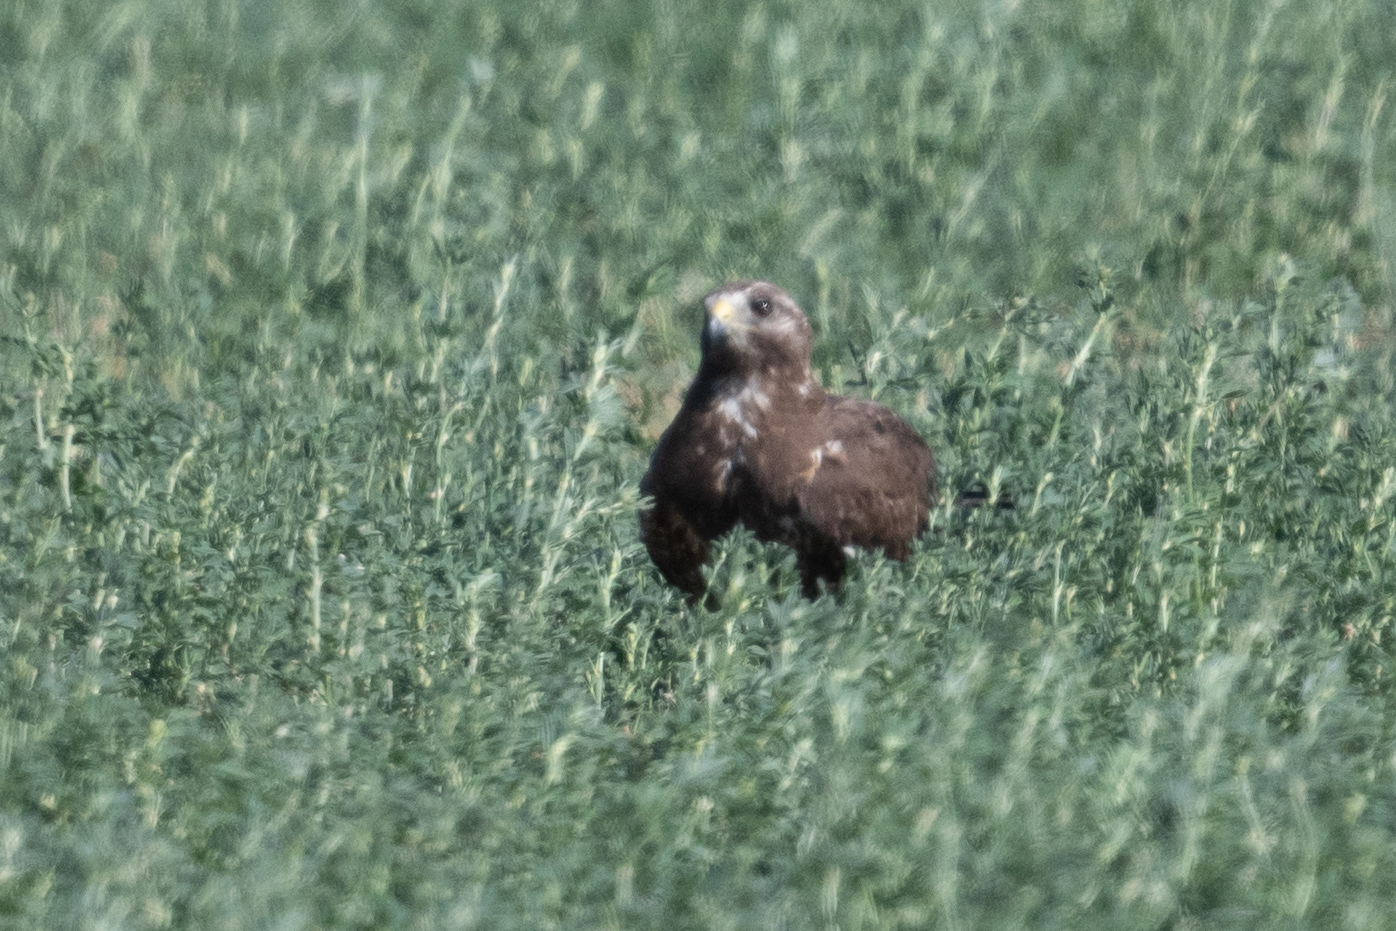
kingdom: Animalia
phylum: Chordata
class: Aves
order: Accipitriformes
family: Accipitridae
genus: Buteo
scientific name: Buteo swainsoni
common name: Swainson's hawk
